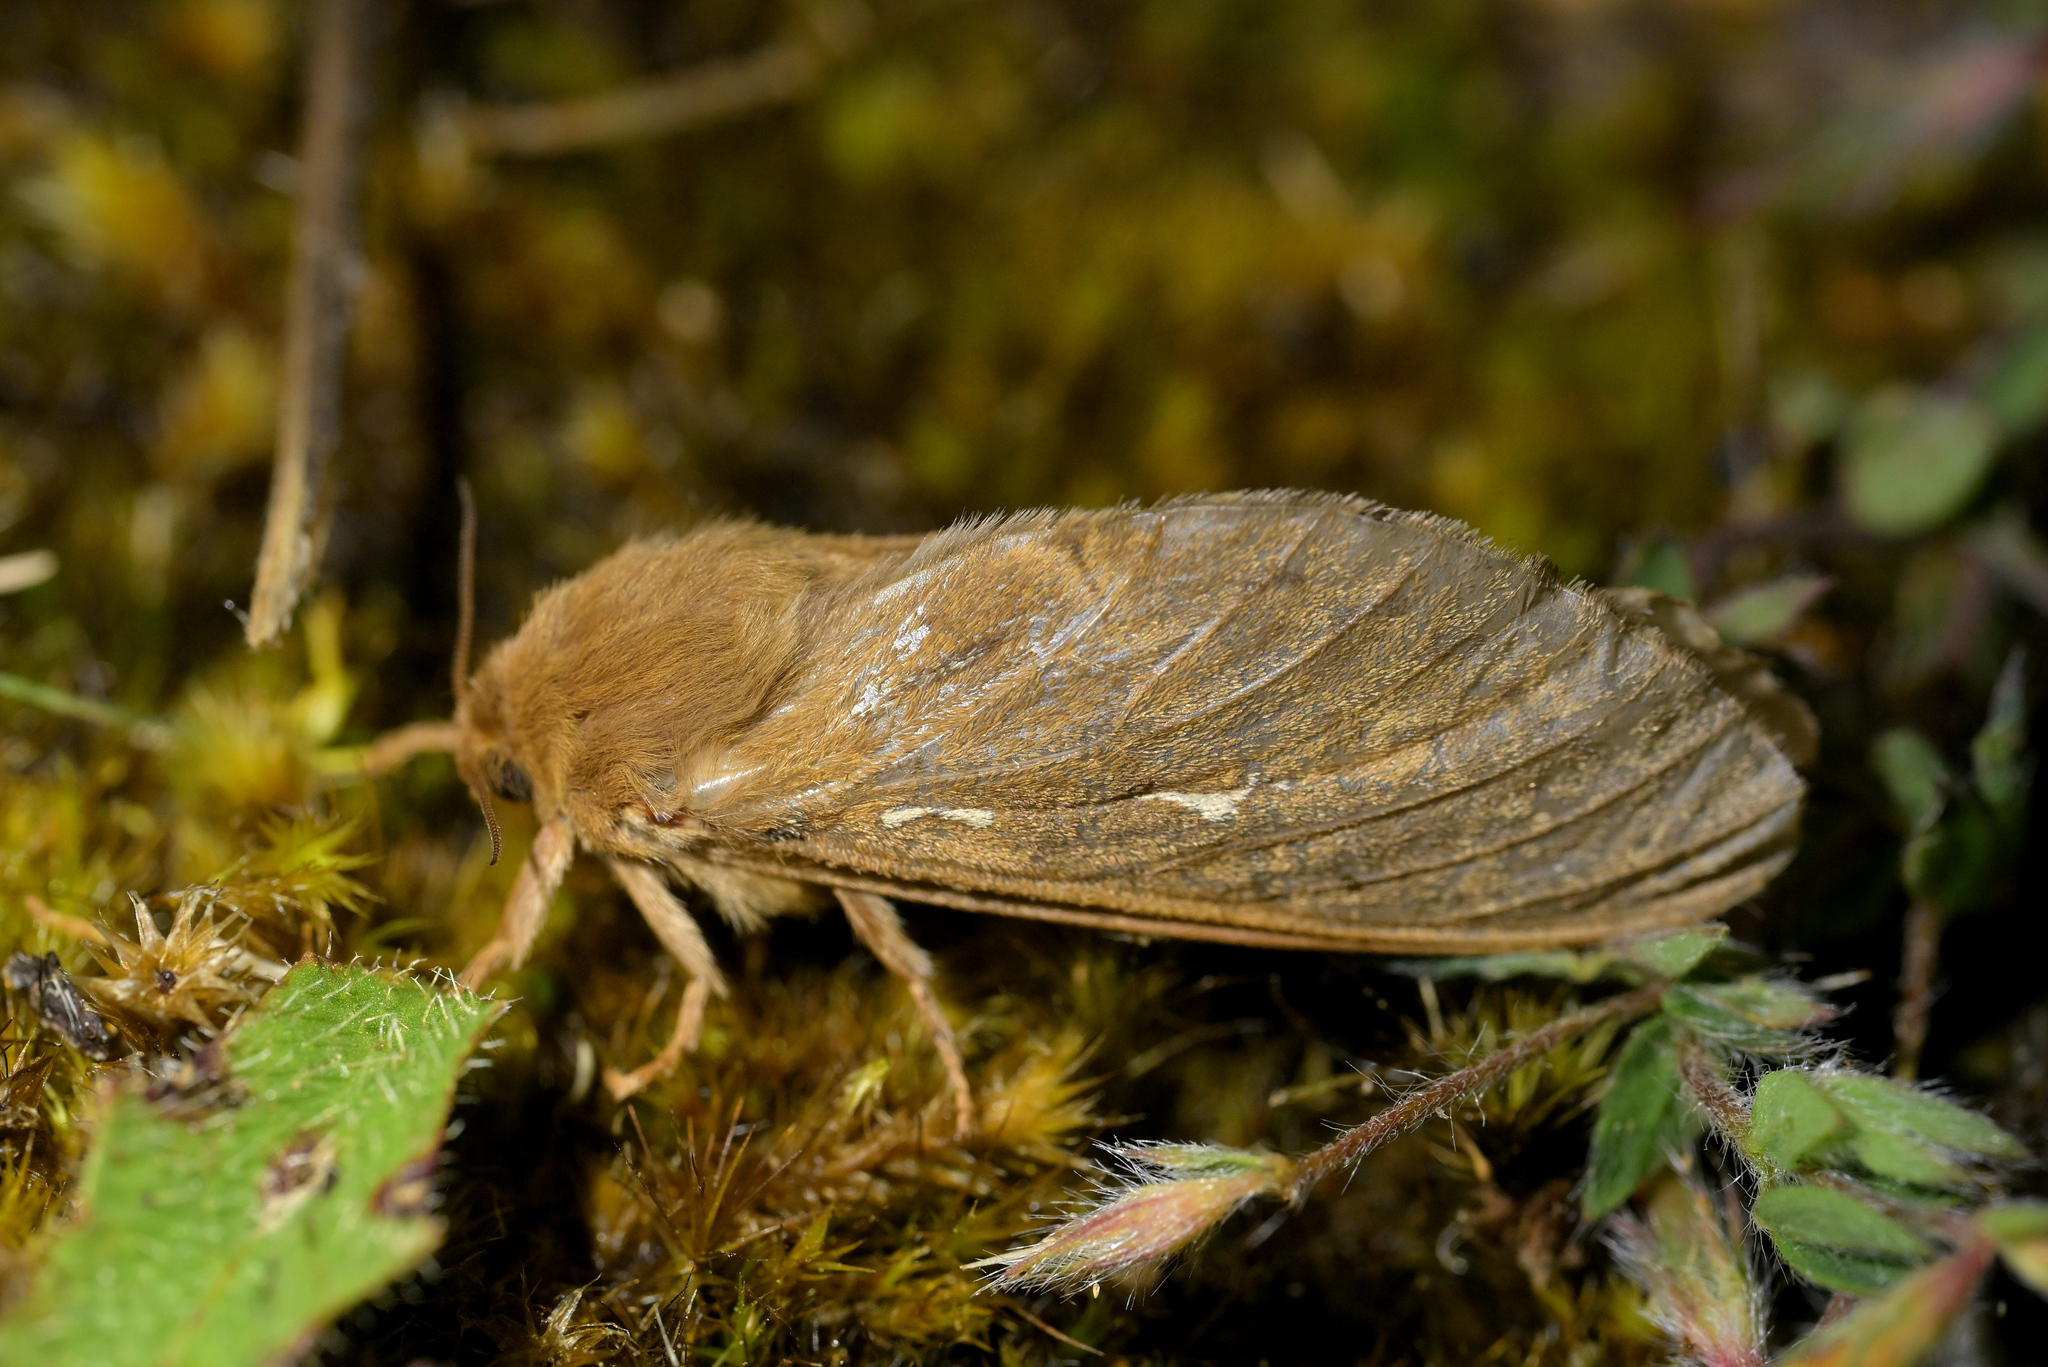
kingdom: Animalia
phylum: Arthropoda
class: Insecta
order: Lepidoptera
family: Hepialidae
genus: Wiseana
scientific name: Wiseana cervinata
